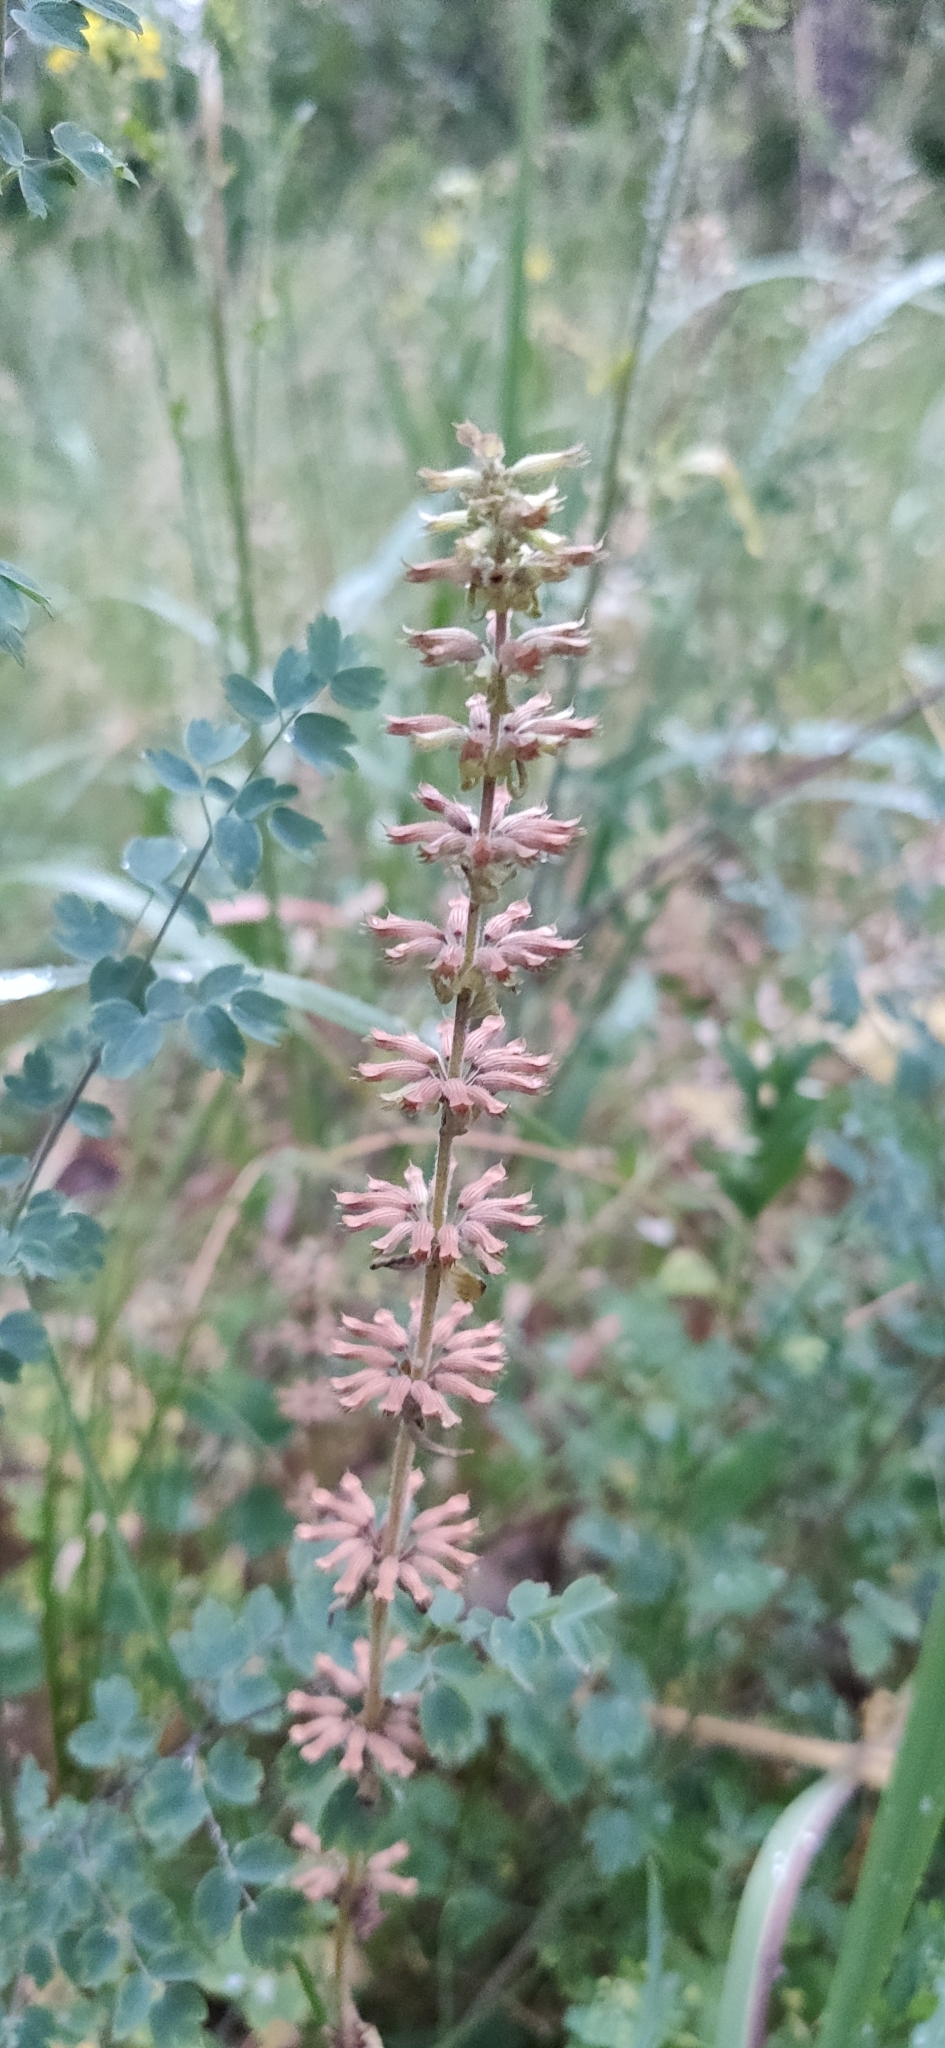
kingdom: Plantae
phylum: Tracheophyta
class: Magnoliopsida
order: Lamiales
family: Lamiaceae
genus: Dracocephalum
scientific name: Dracocephalum thymiflorum
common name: Thymeleaf dragonhead
